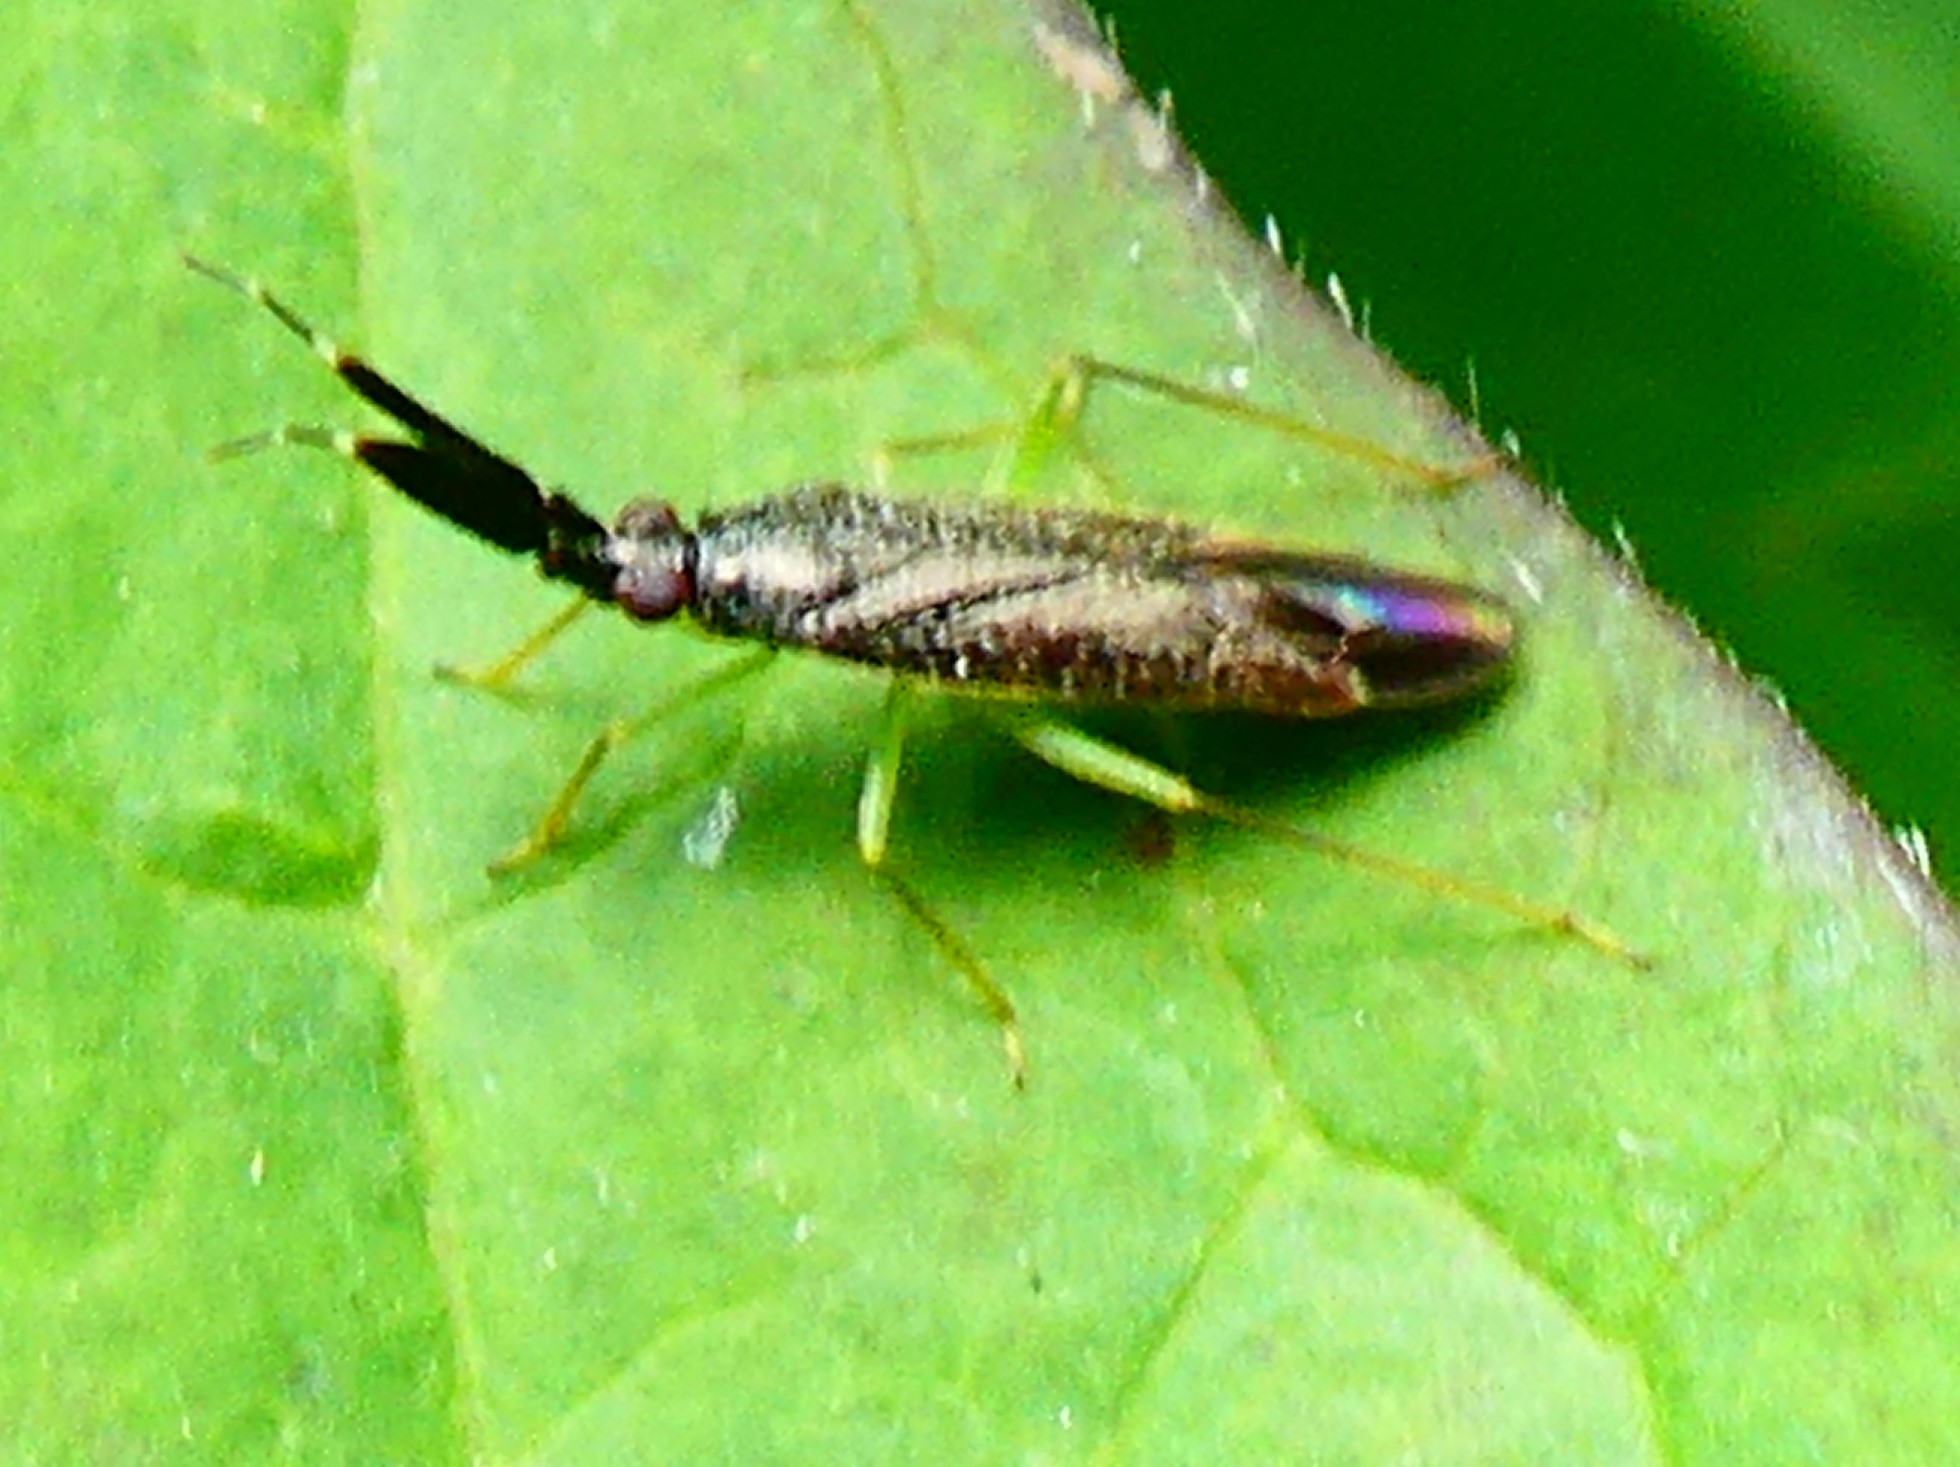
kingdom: Animalia
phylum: Arthropoda
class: Insecta
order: Hemiptera
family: Miridae
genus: Heterotoma
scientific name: Heterotoma planicornis
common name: Plant bug
